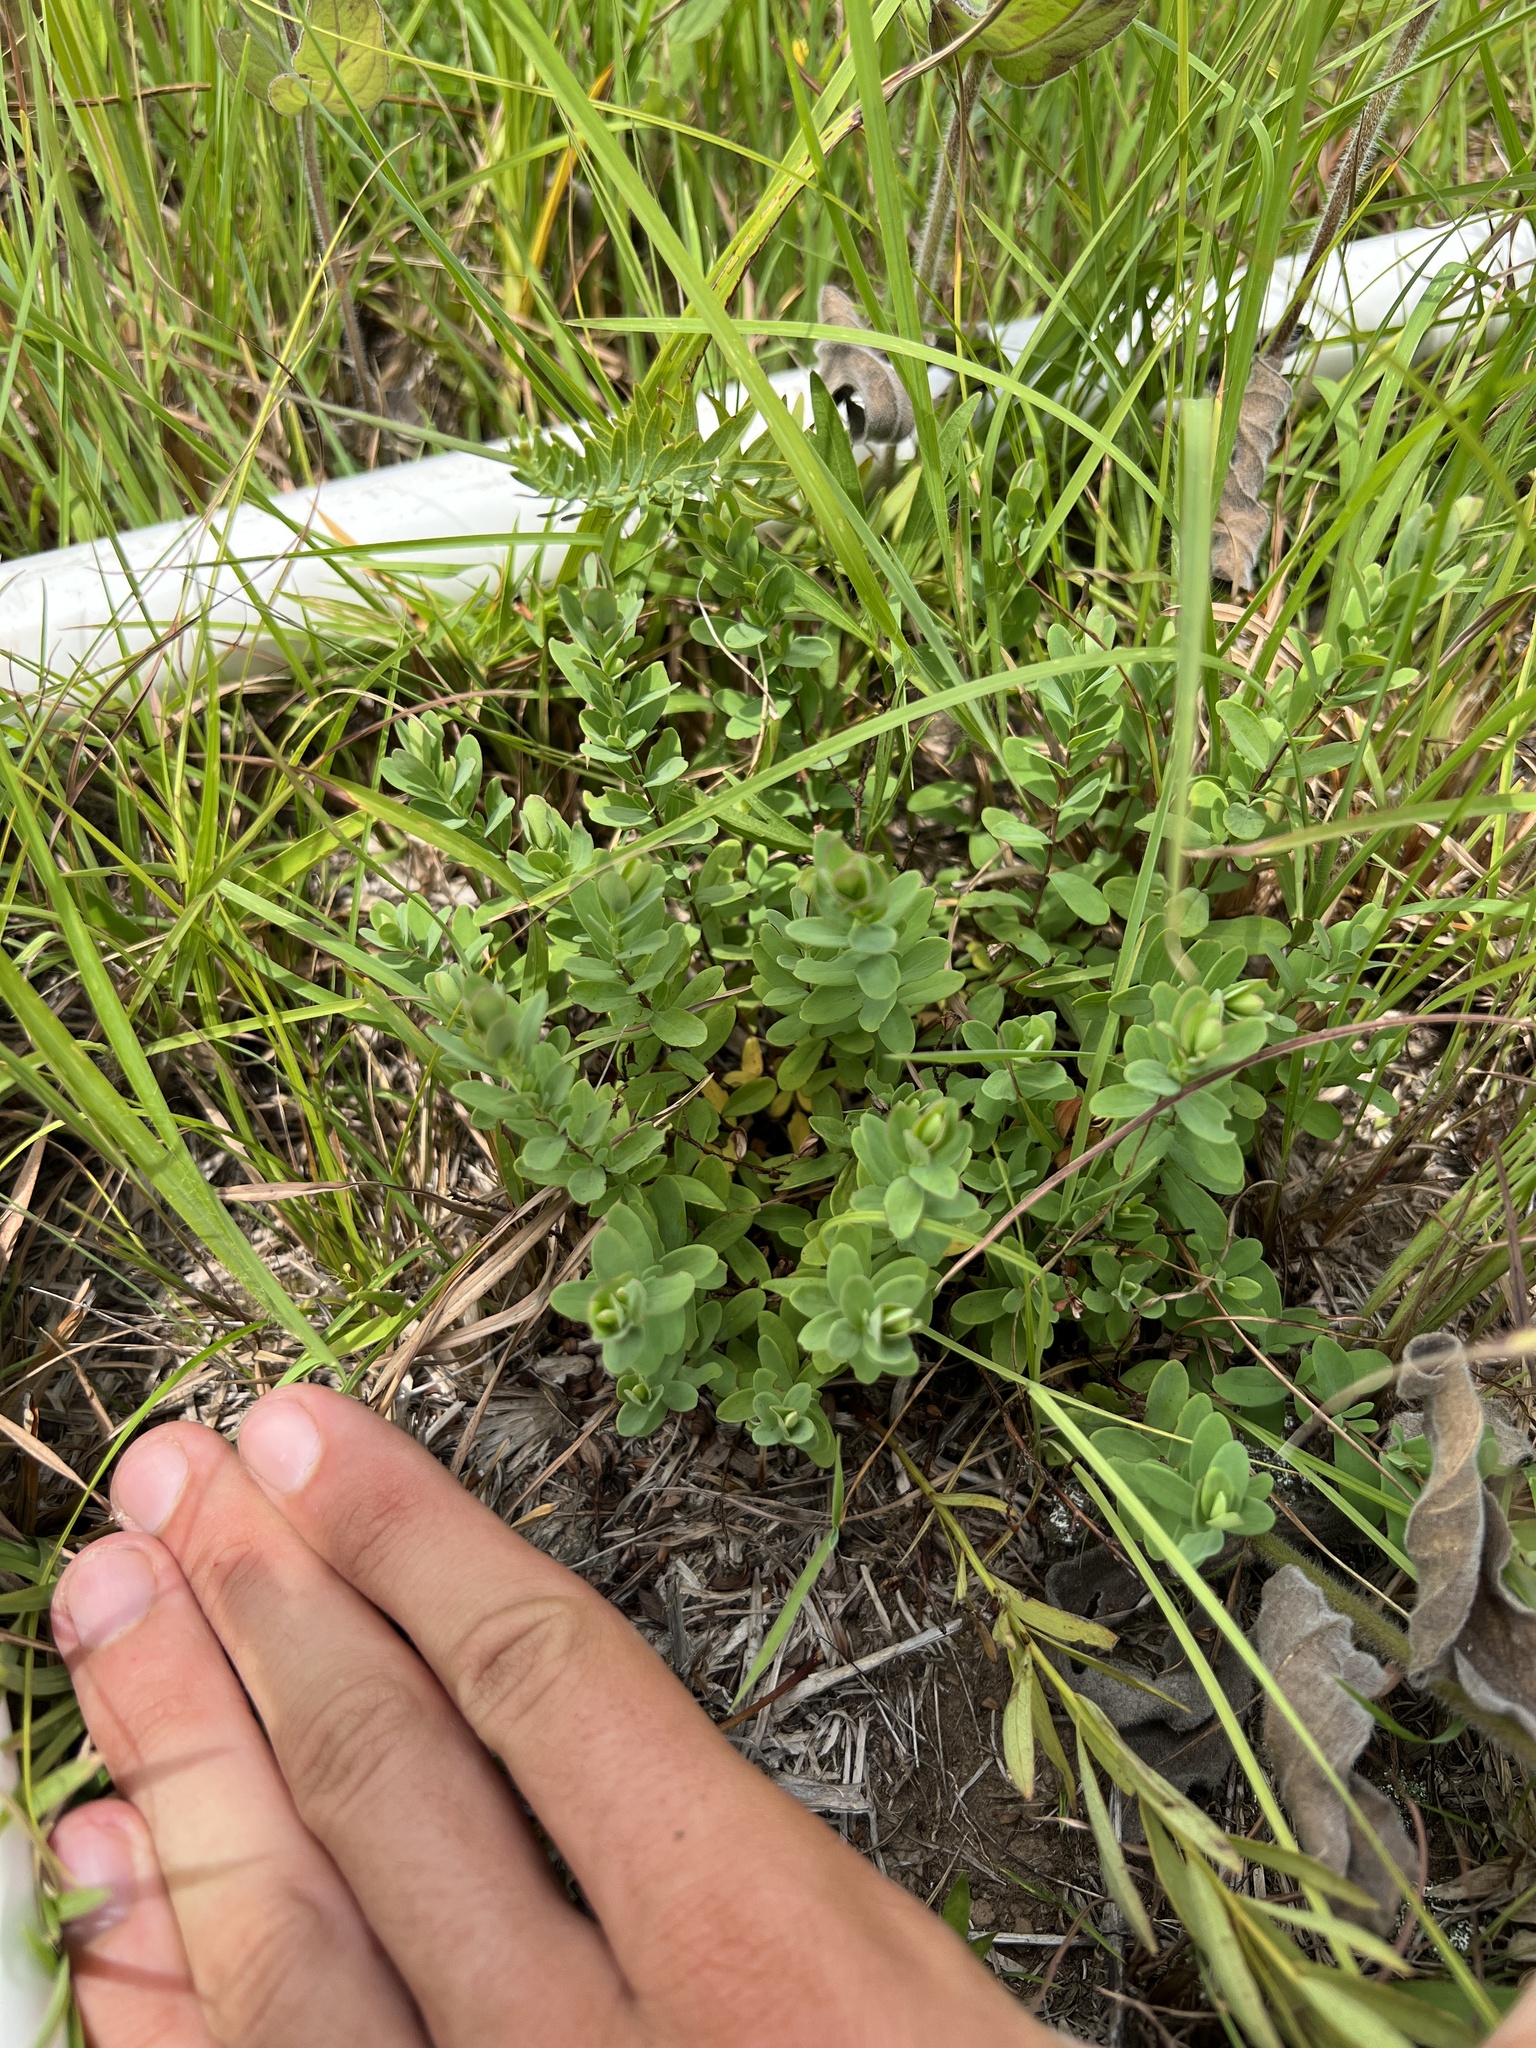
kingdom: Plantae
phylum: Tracheophyta
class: Magnoliopsida
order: Malpighiales
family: Hypericaceae
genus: Hypericum
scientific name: Hypericum hypericoides
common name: St. andrew's cross
